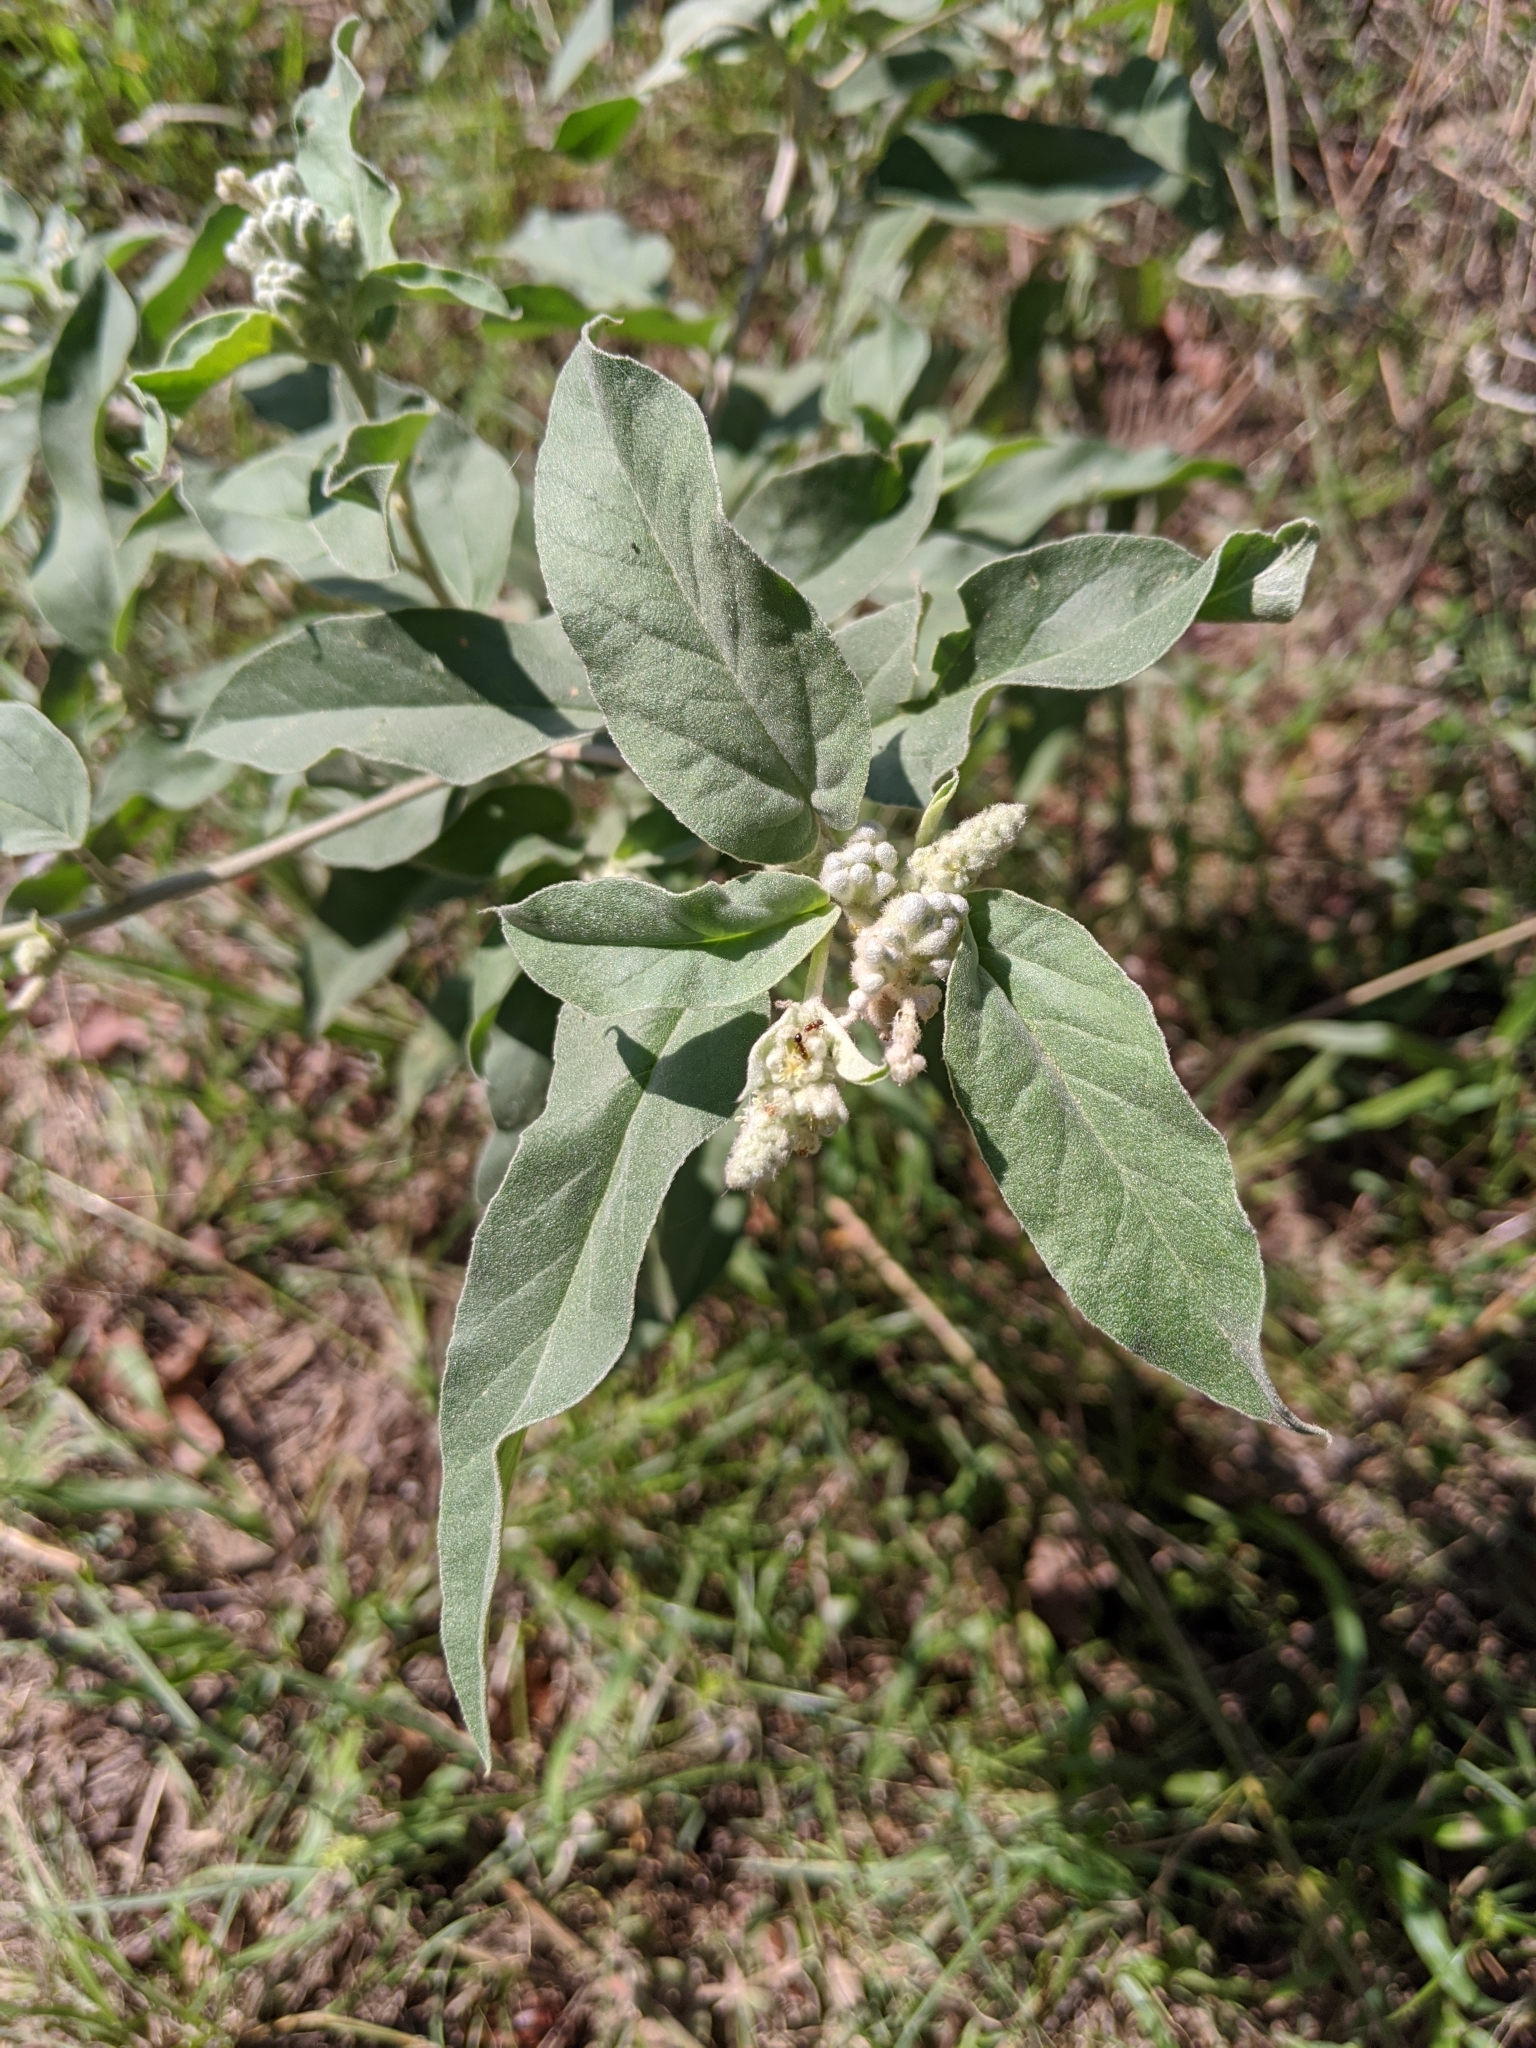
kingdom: Plantae
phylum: Tracheophyta
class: Magnoliopsida
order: Malpighiales
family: Euphorbiaceae
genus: Croton
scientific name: Croton lindheimeri
